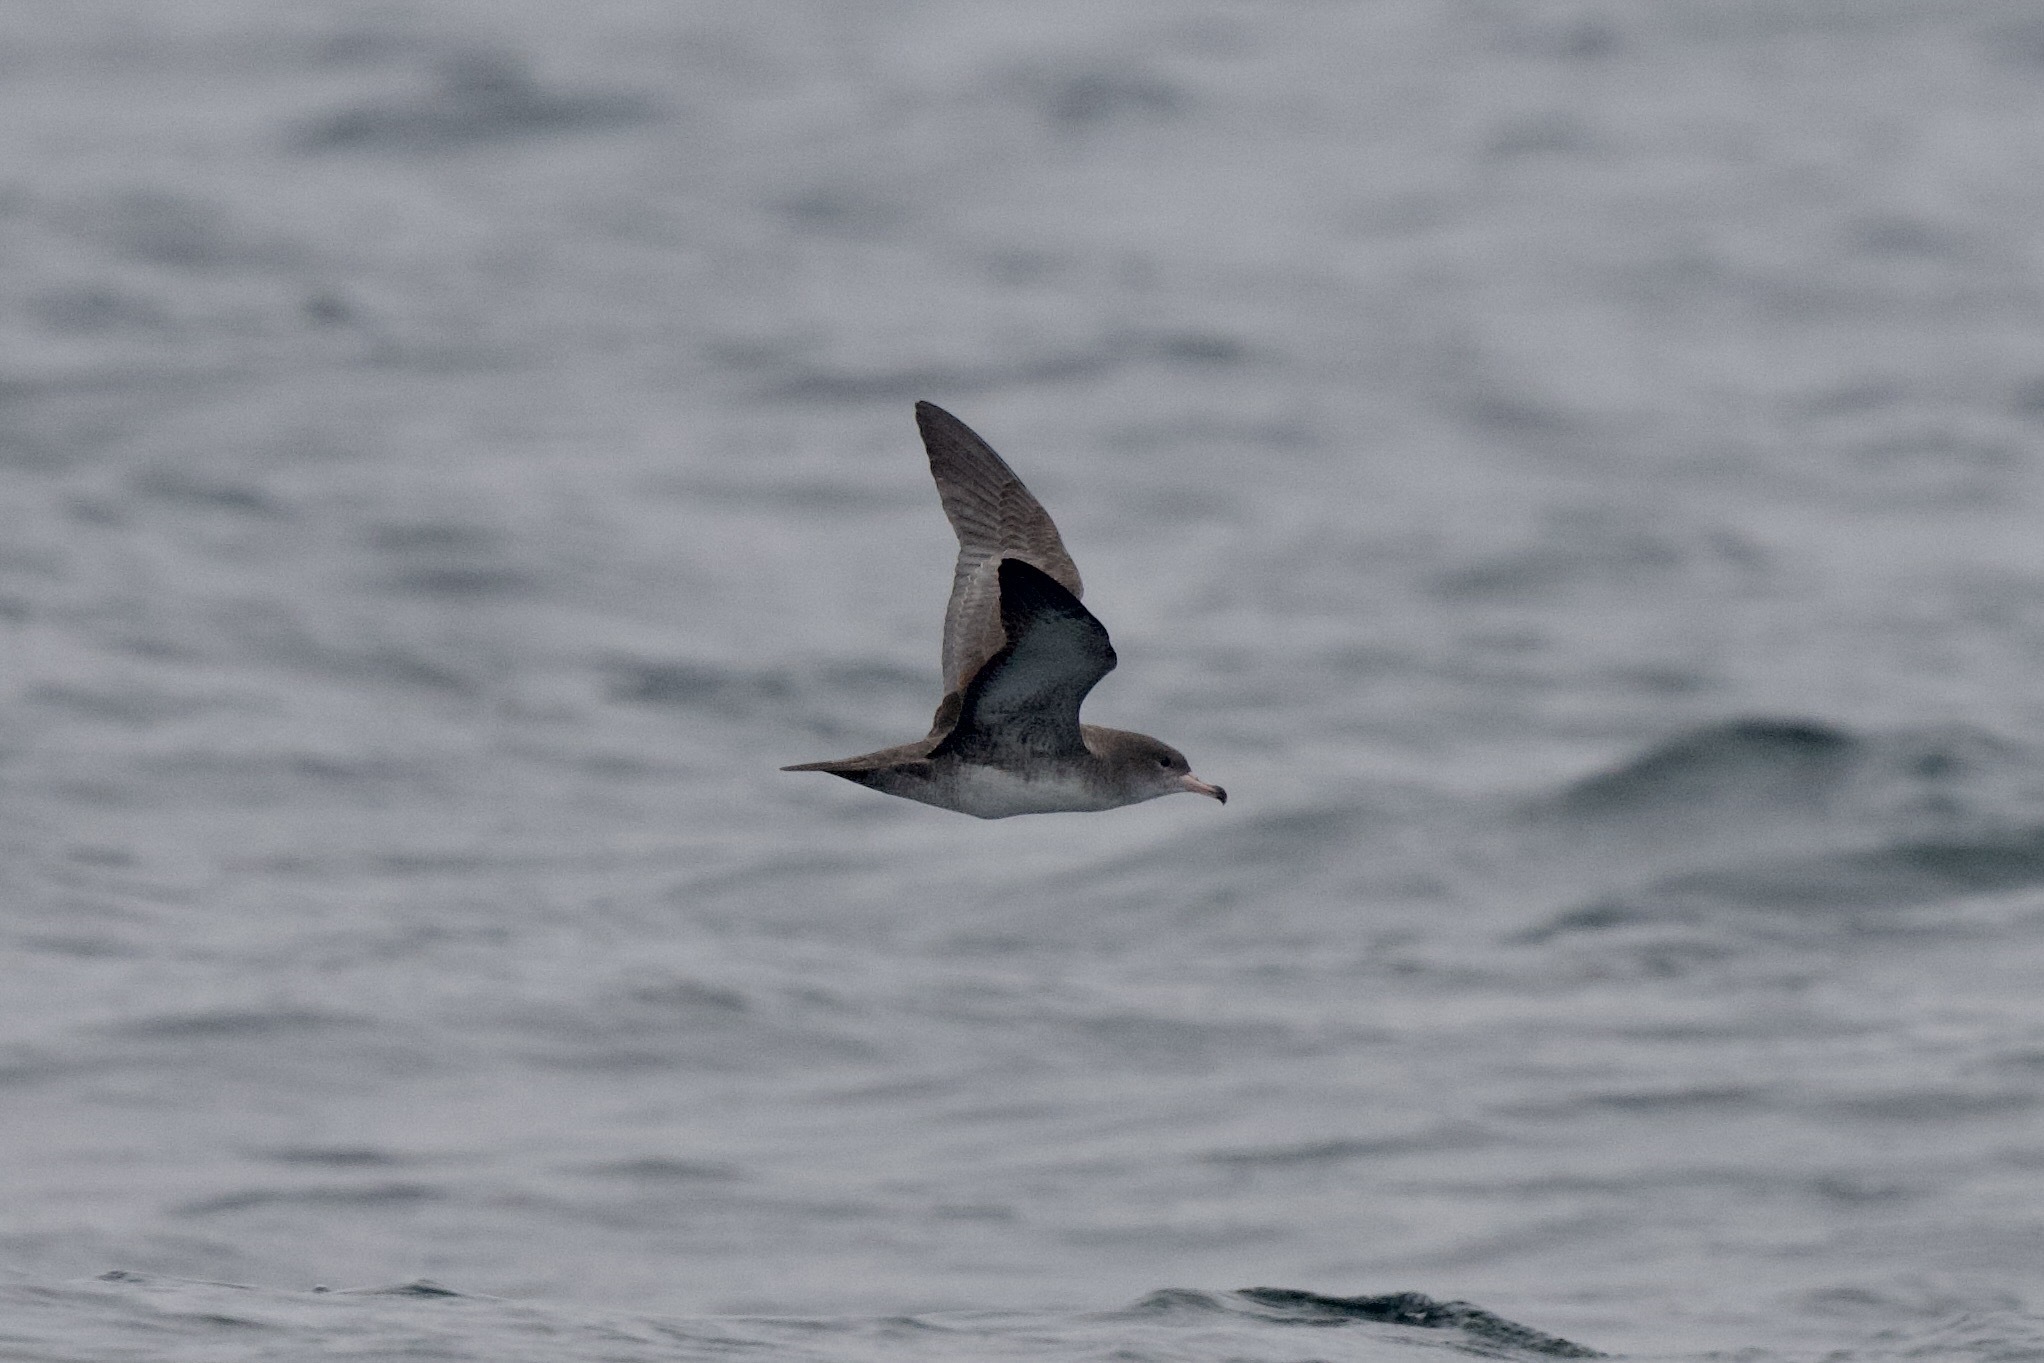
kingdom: Animalia
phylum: Chordata
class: Aves
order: Procellariiformes
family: Procellariidae
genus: Puffinus
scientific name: Puffinus creatopus
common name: Pink-footed shearwater
